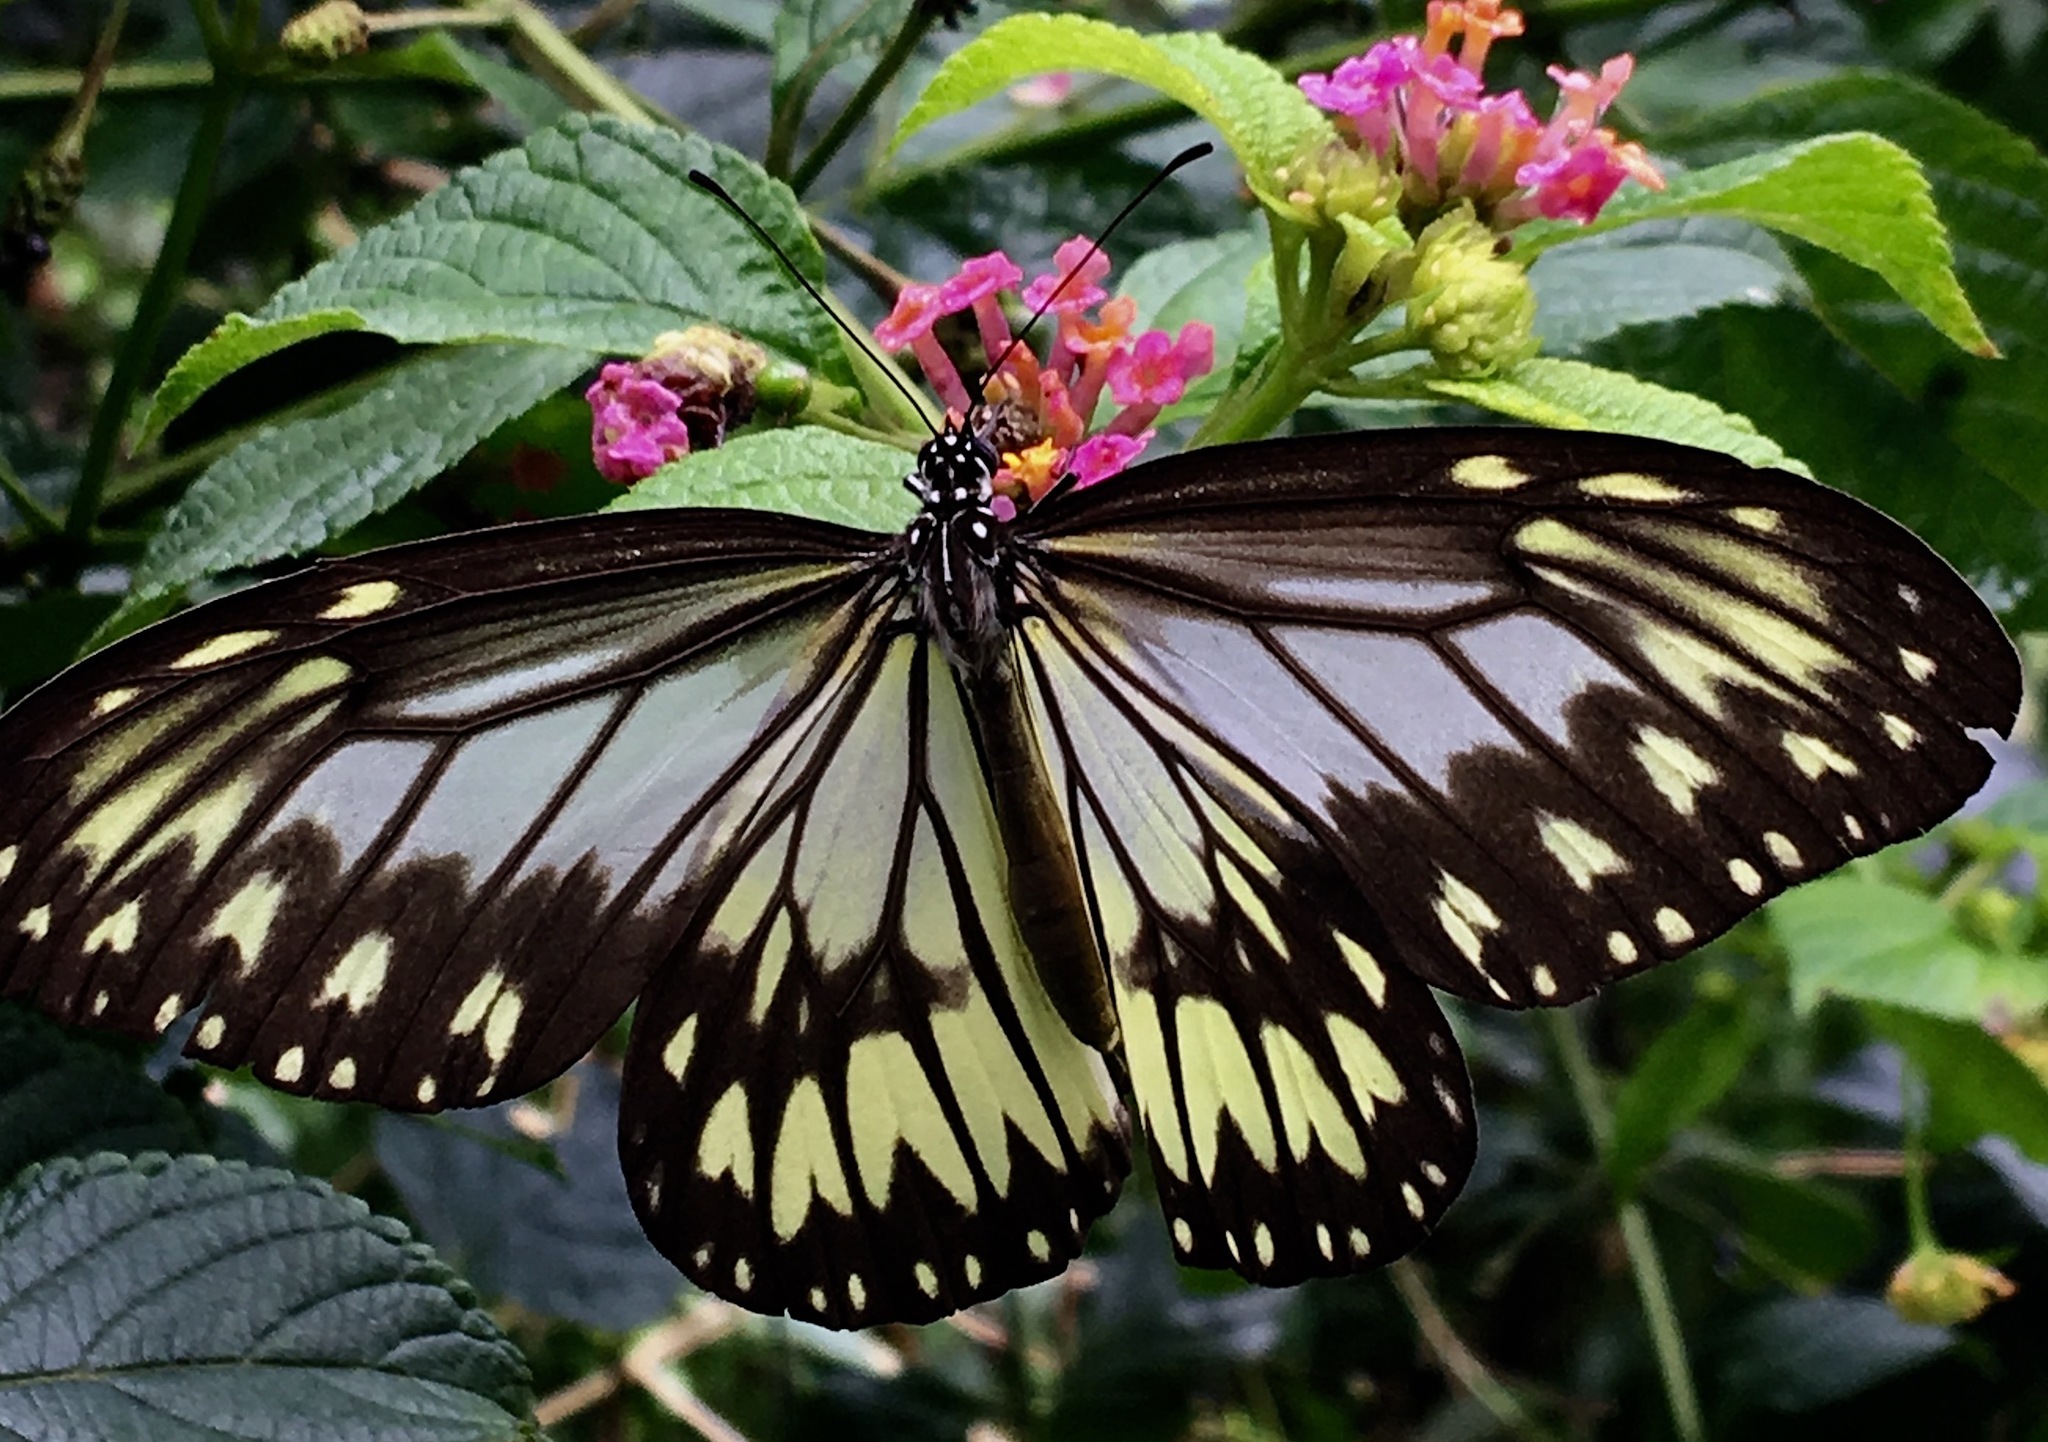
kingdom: Animalia
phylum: Arthropoda
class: Insecta
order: Lepidoptera
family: Nymphalidae
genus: Ideopsis
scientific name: Ideopsis vitrea
